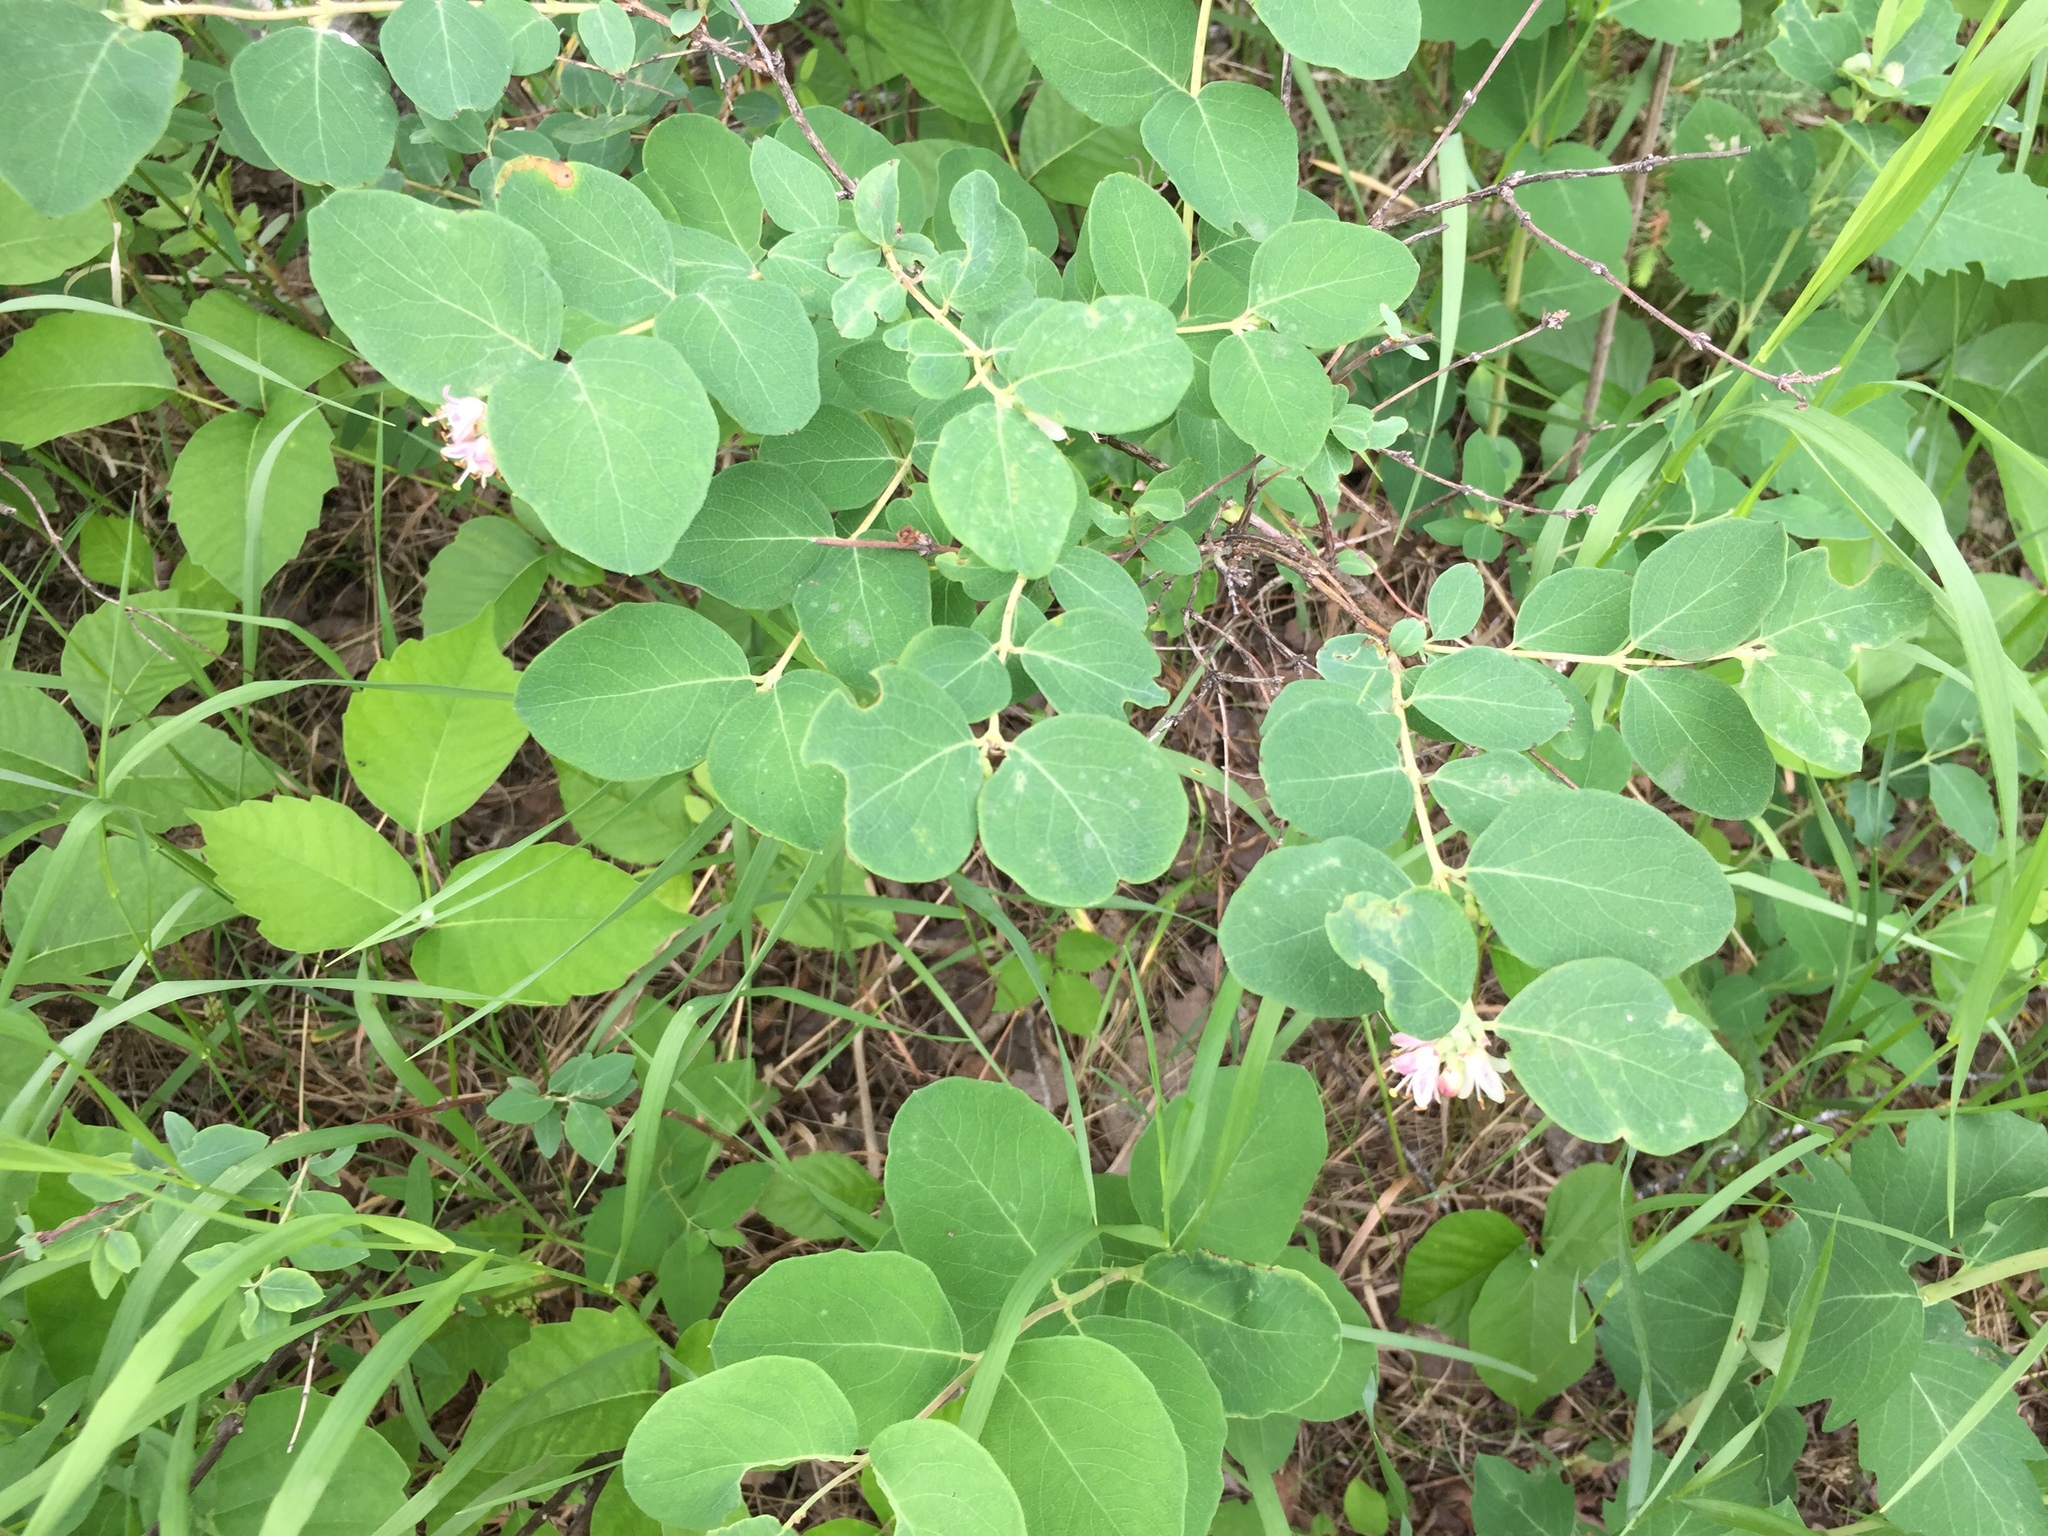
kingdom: Plantae
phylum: Tracheophyta
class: Magnoliopsida
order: Dipsacales
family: Caprifoliaceae
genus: Symphoricarpos
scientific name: Symphoricarpos occidentalis
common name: Wolfberry
